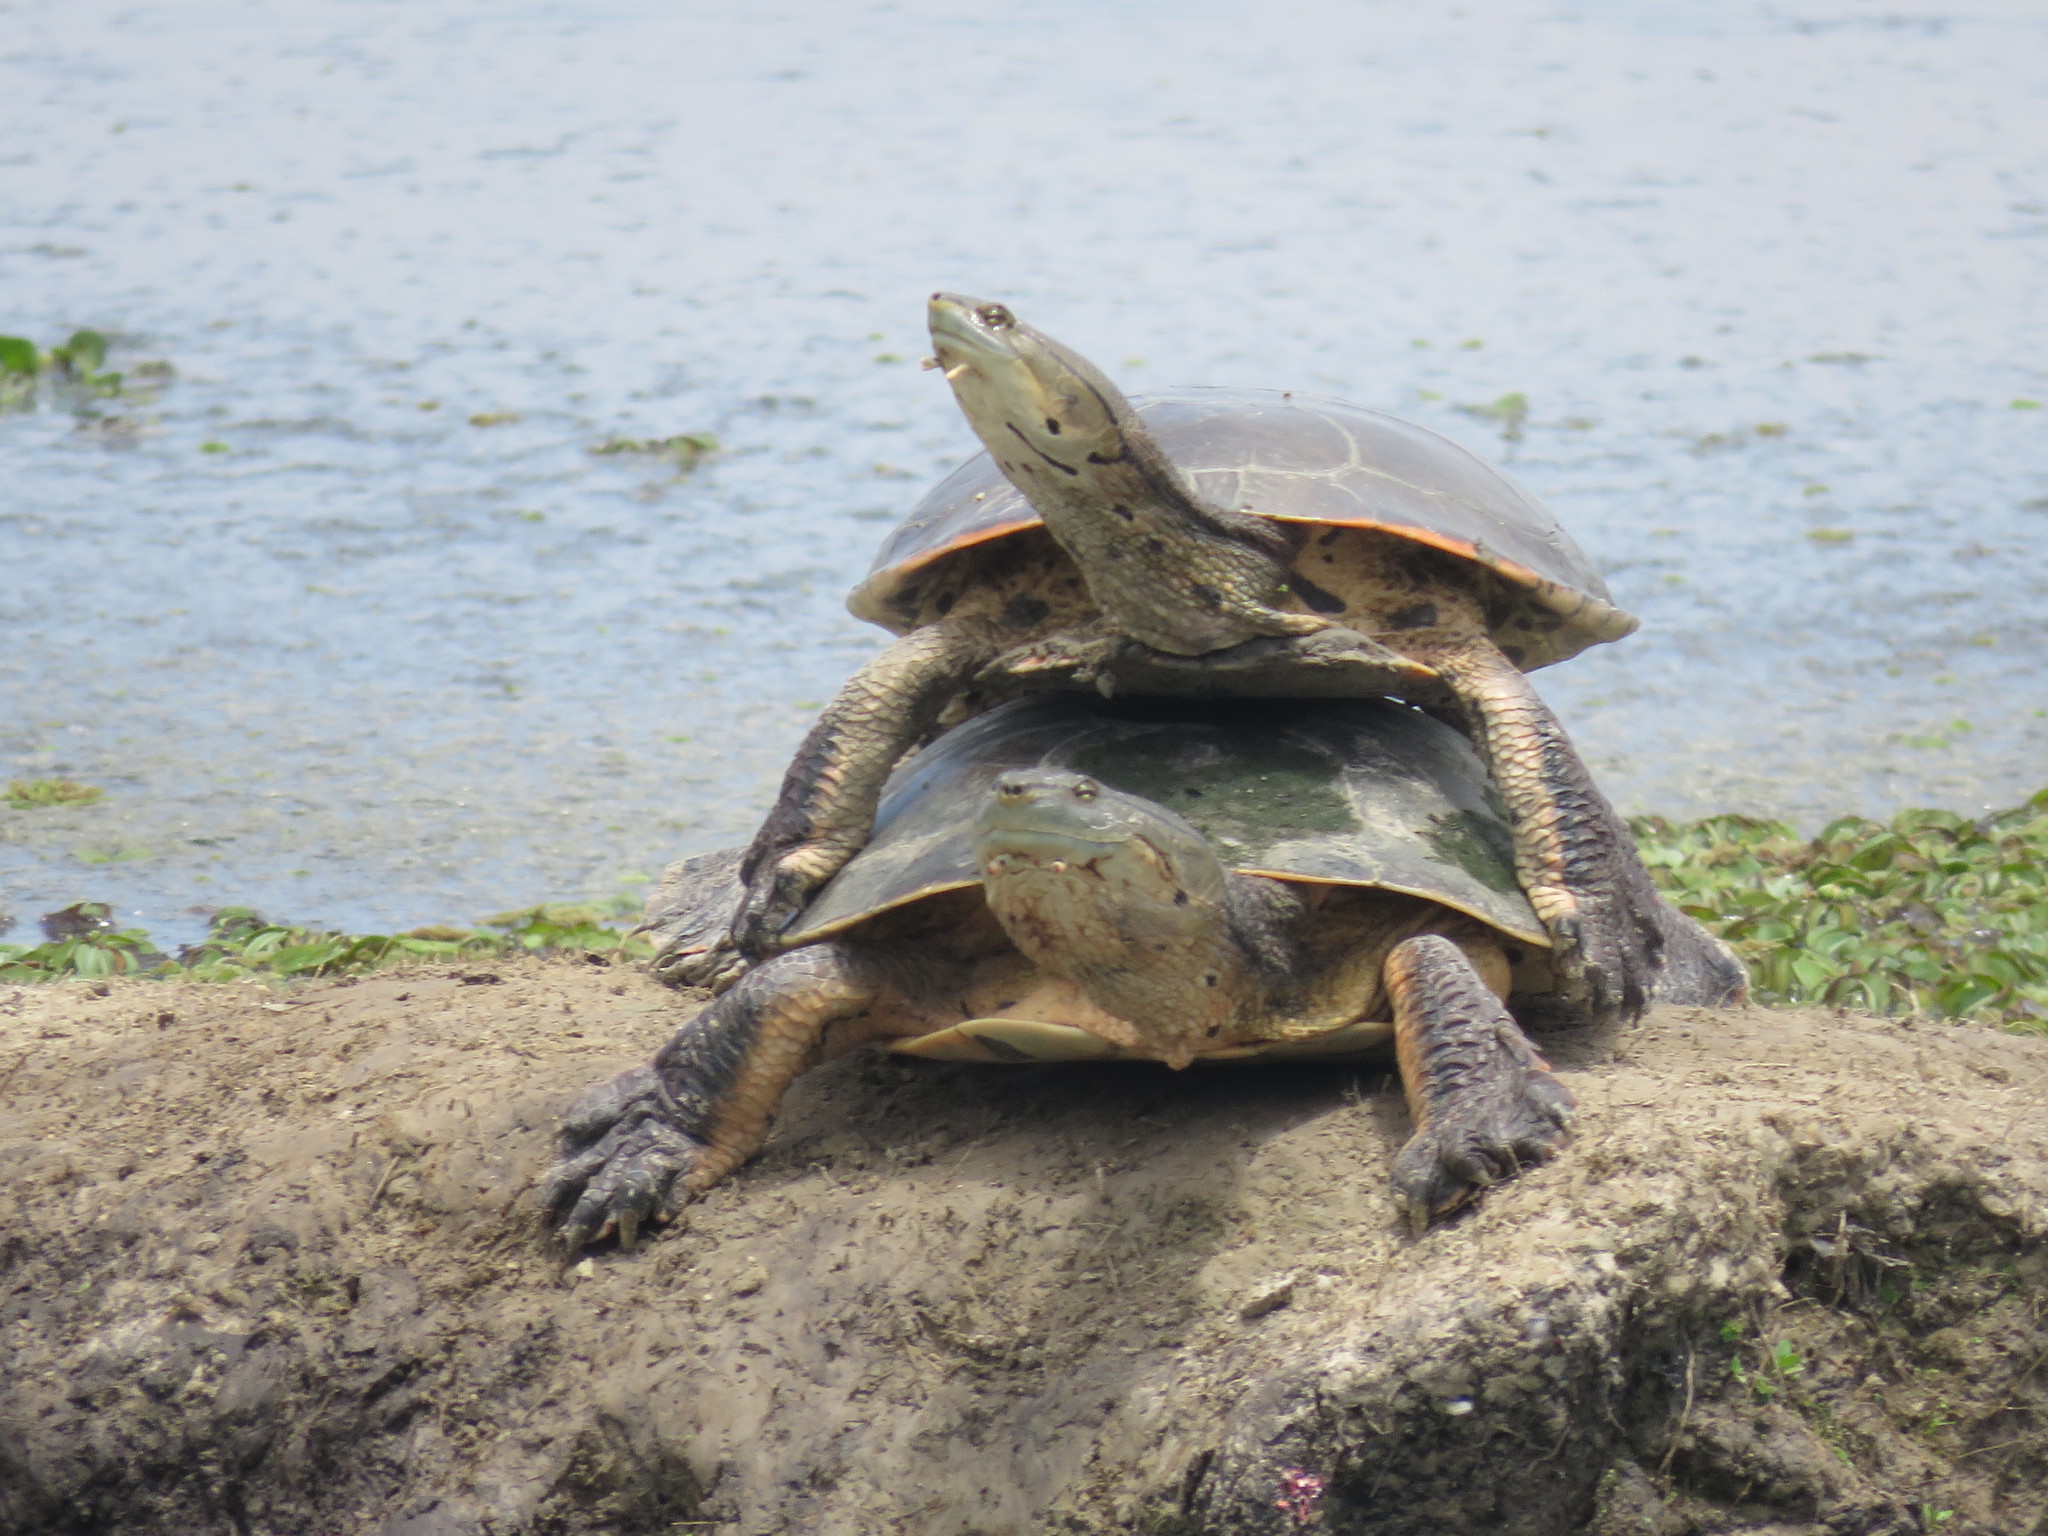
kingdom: Animalia
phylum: Chordata
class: Testudines
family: Chelidae
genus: Phrynops
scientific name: Phrynops hilarii
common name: Side-necked turtle of saint hillaire
